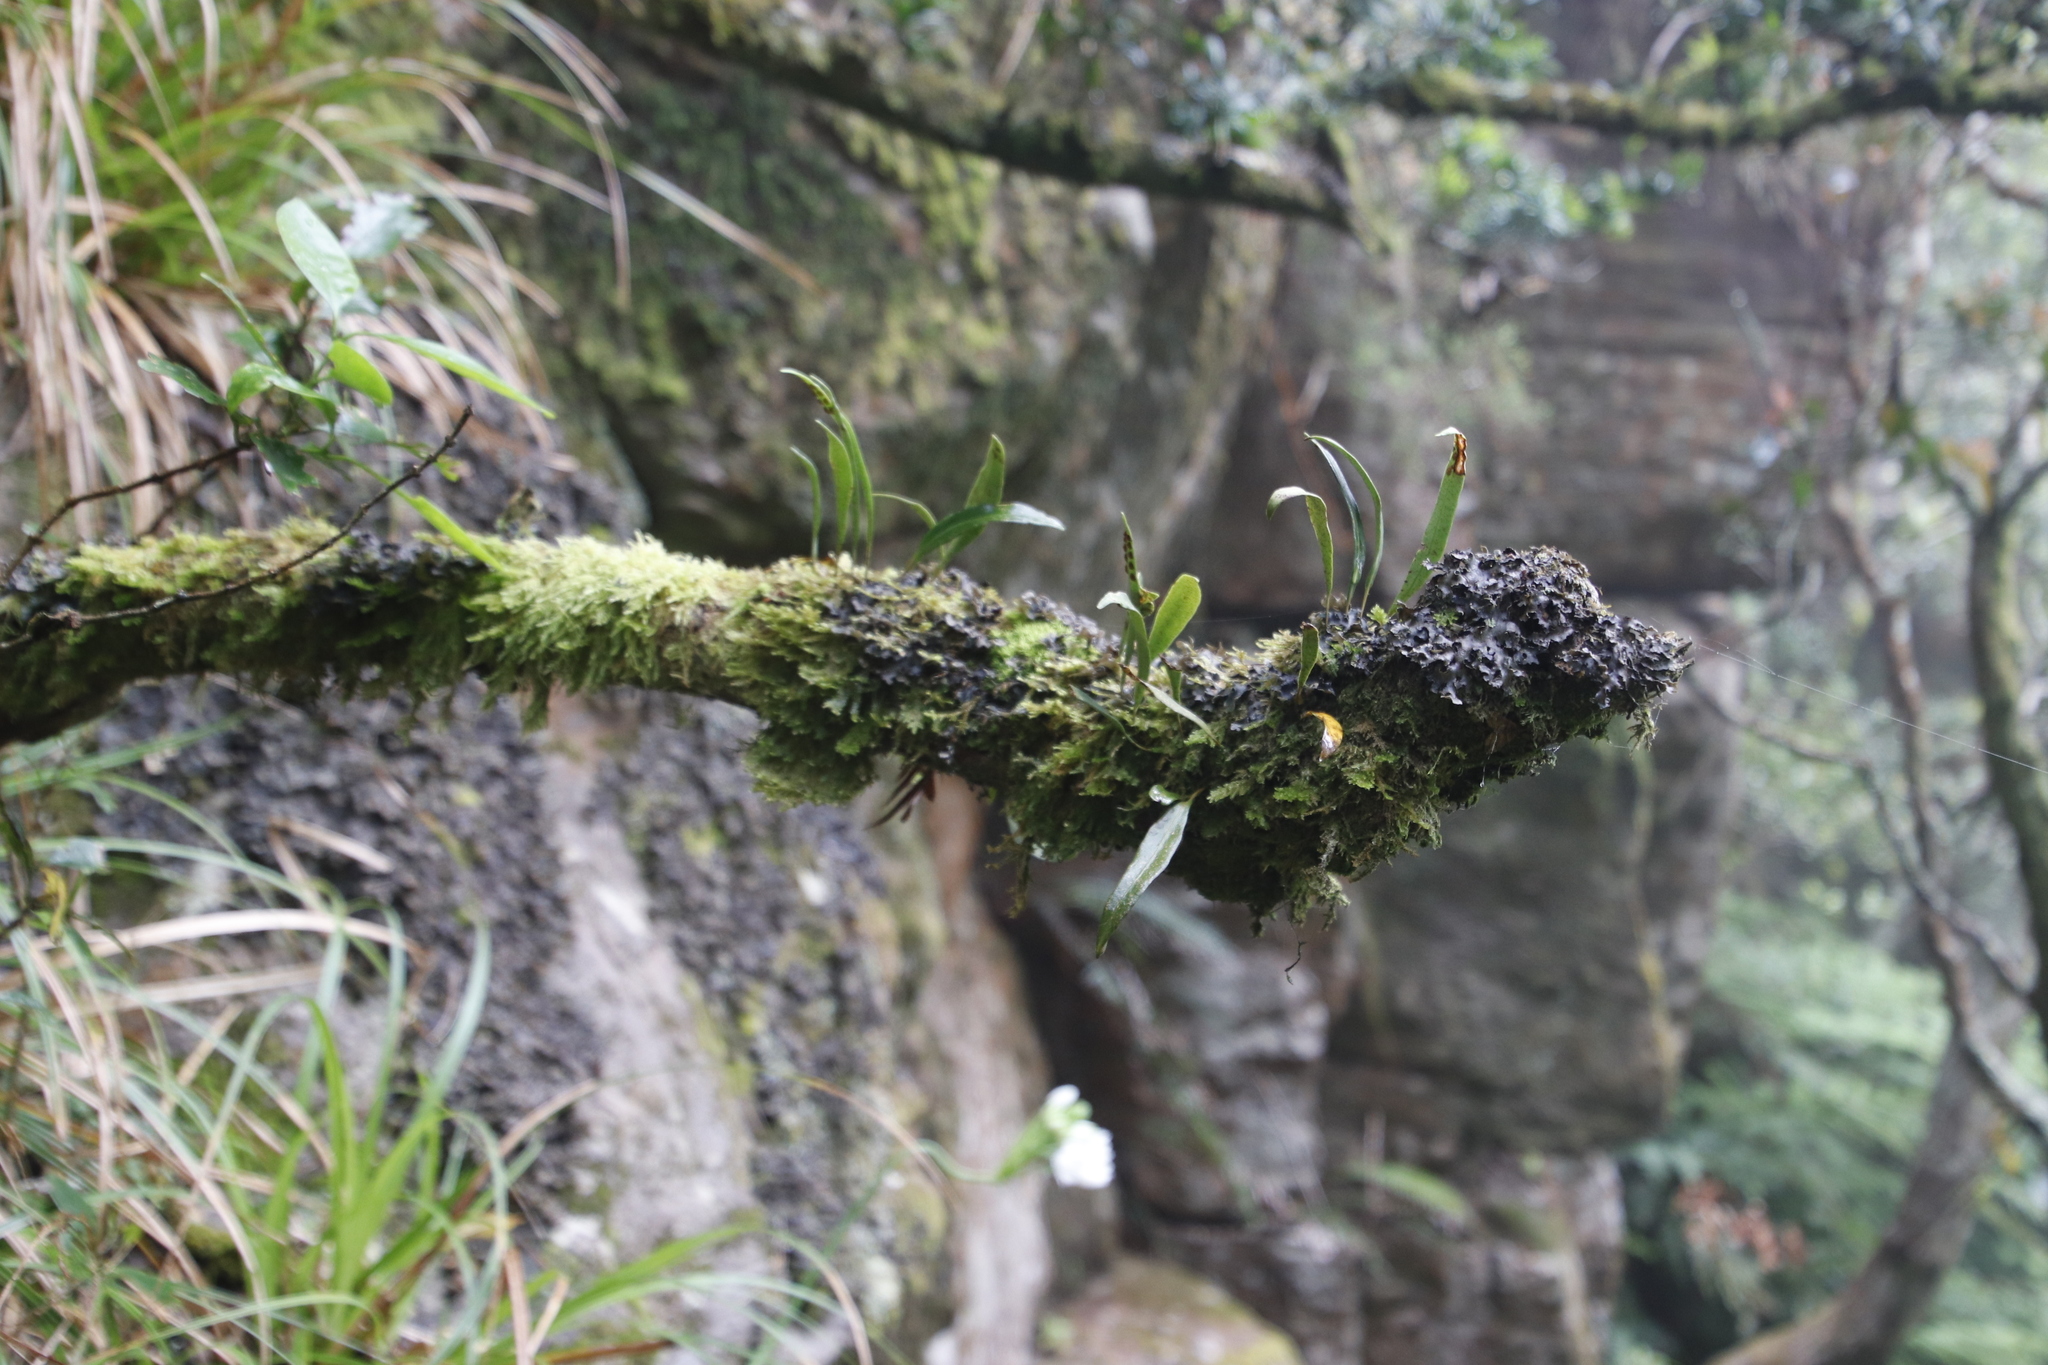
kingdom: Plantae
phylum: Tracheophyta
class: Polypodiopsida
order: Polypodiales
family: Polypodiaceae
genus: Pleopeltis
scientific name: Pleopeltis macrocarpa
